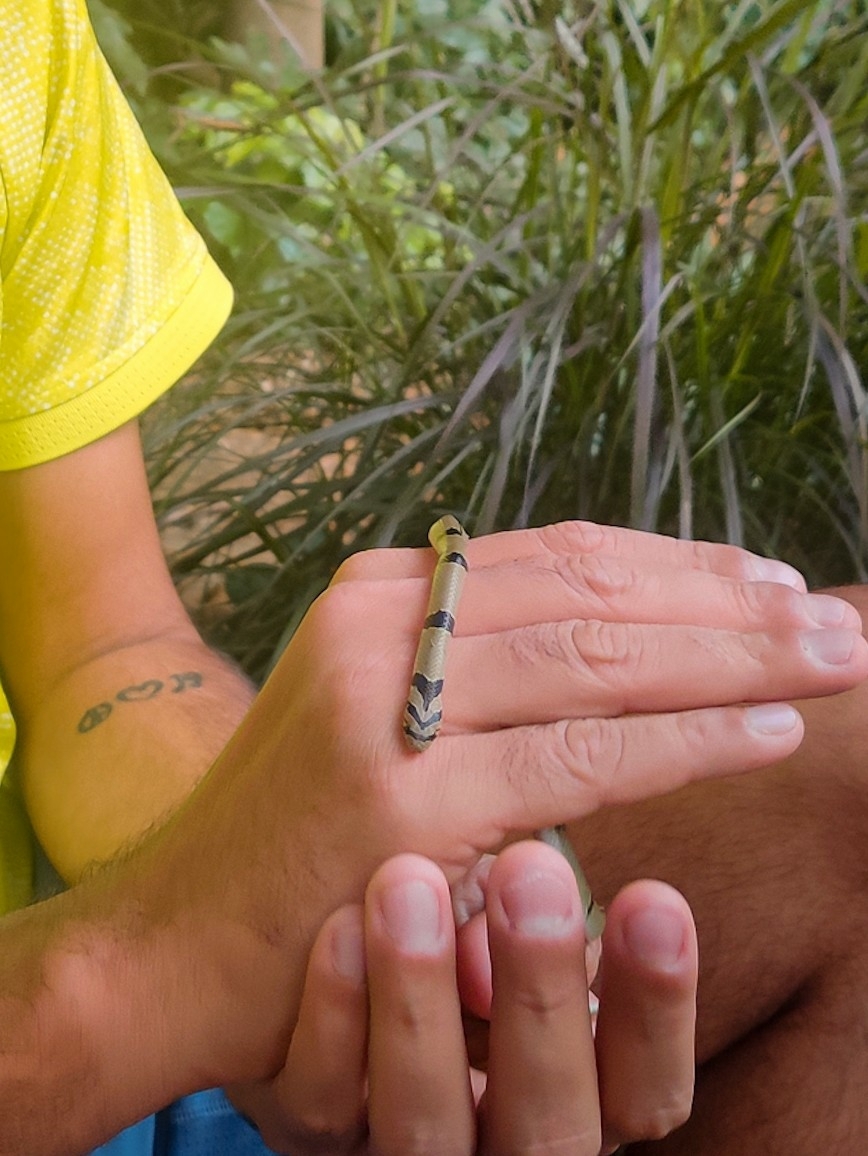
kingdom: Animalia
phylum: Chordata
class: Squamata
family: Colubridae
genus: Oligodon
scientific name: Oligodon arnensis
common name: Banded kukri
